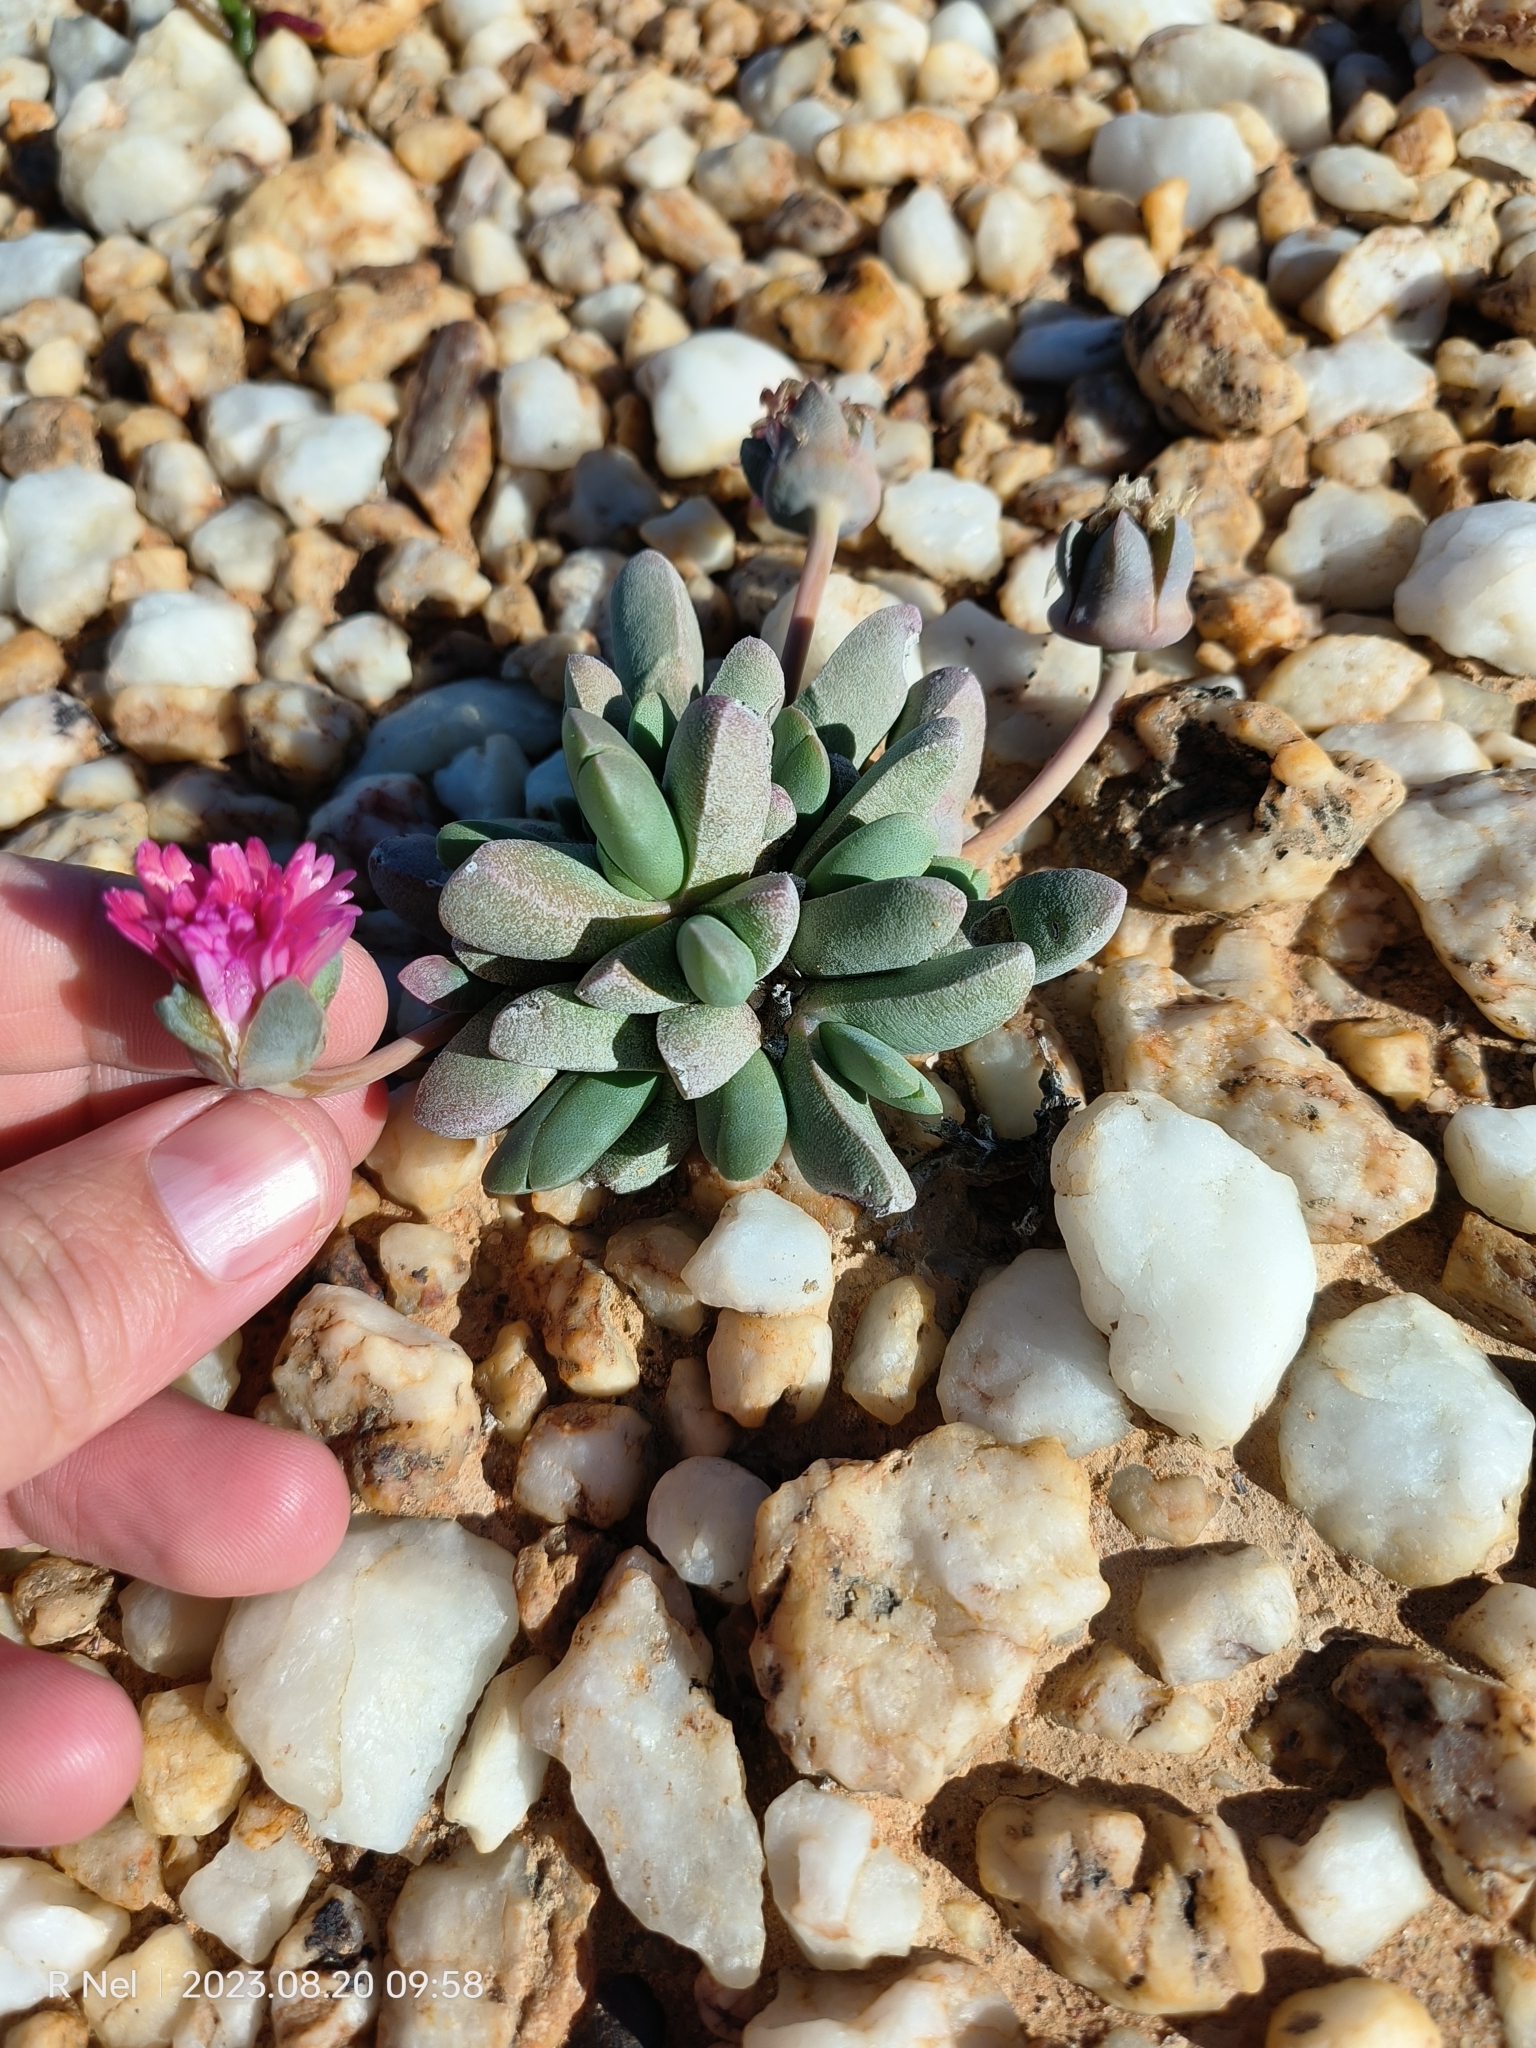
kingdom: Plantae
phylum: Tracheophyta
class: Magnoliopsida
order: Caryophyllales
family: Aizoaceae
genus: Cephalophyllum
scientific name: Cephalophyllum spissum
